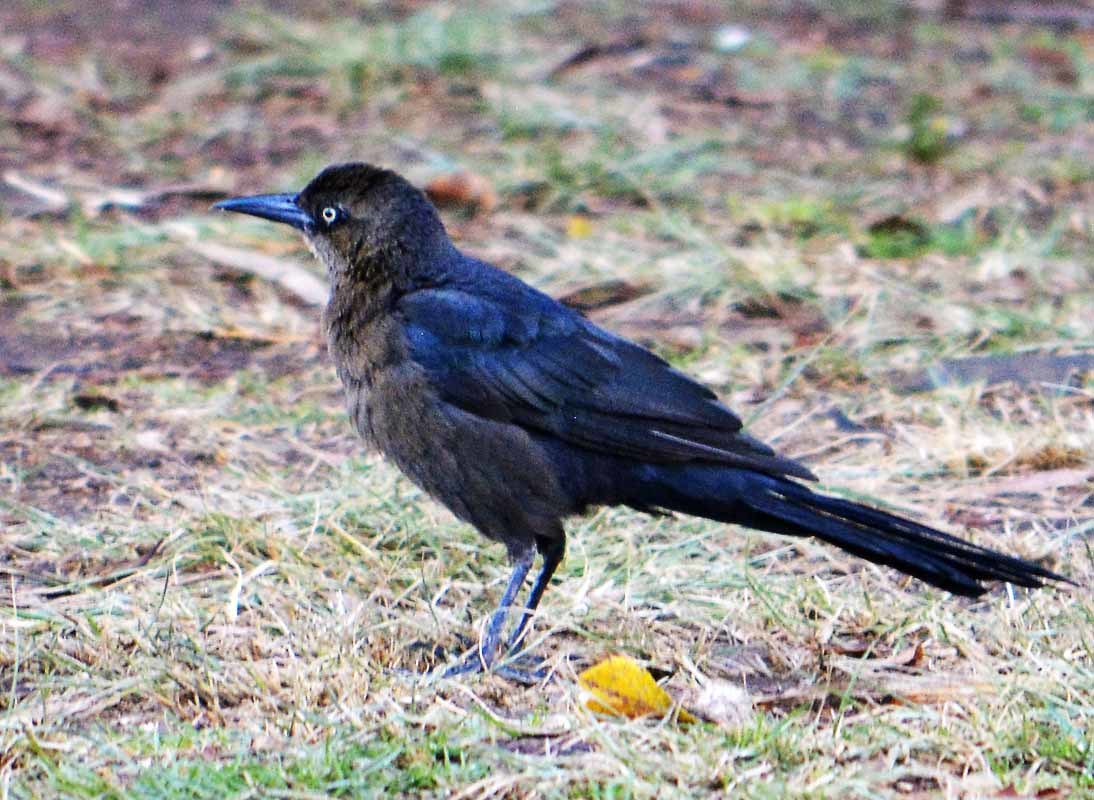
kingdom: Animalia
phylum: Chordata
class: Aves
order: Passeriformes
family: Icteridae
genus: Quiscalus
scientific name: Quiscalus mexicanus
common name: Great-tailed grackle
